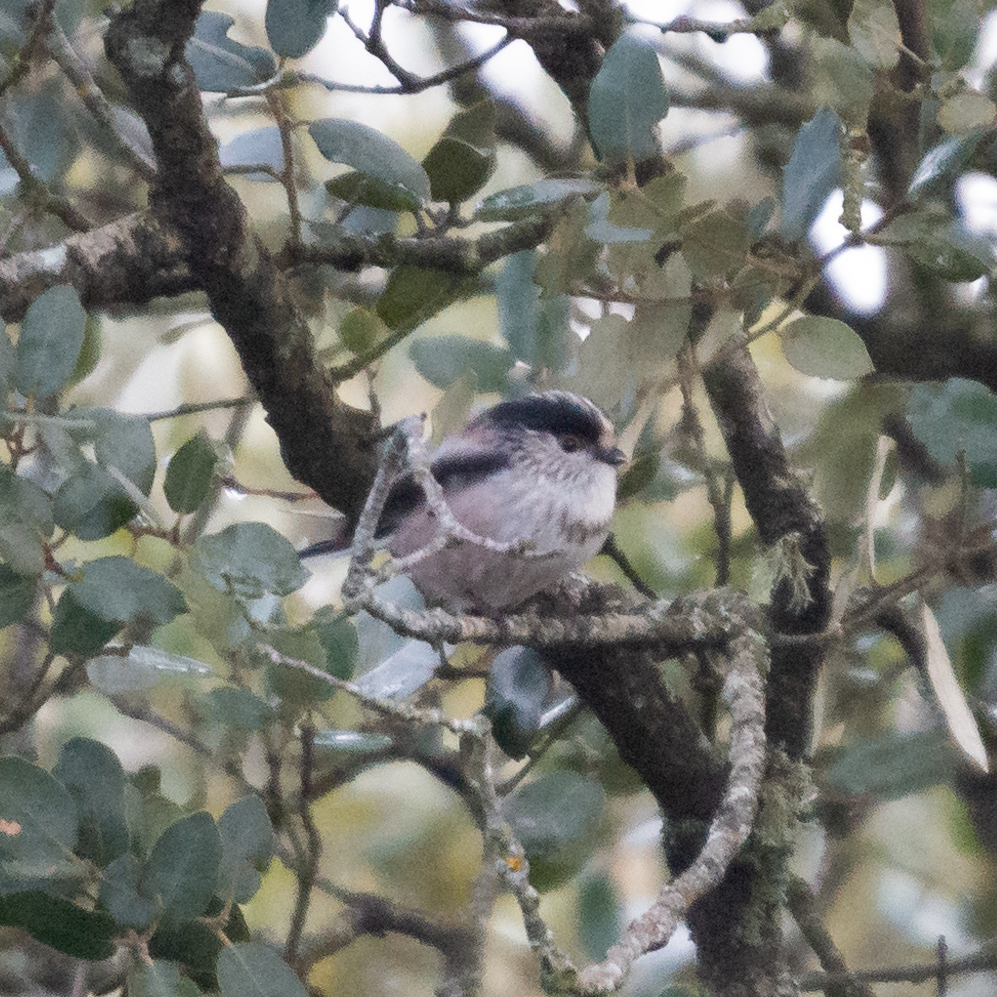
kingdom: Animalia
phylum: Chordata
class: Aves
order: Passeriformes
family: Aegithalidae
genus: Aegithalos
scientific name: Aegithalos caudatus
